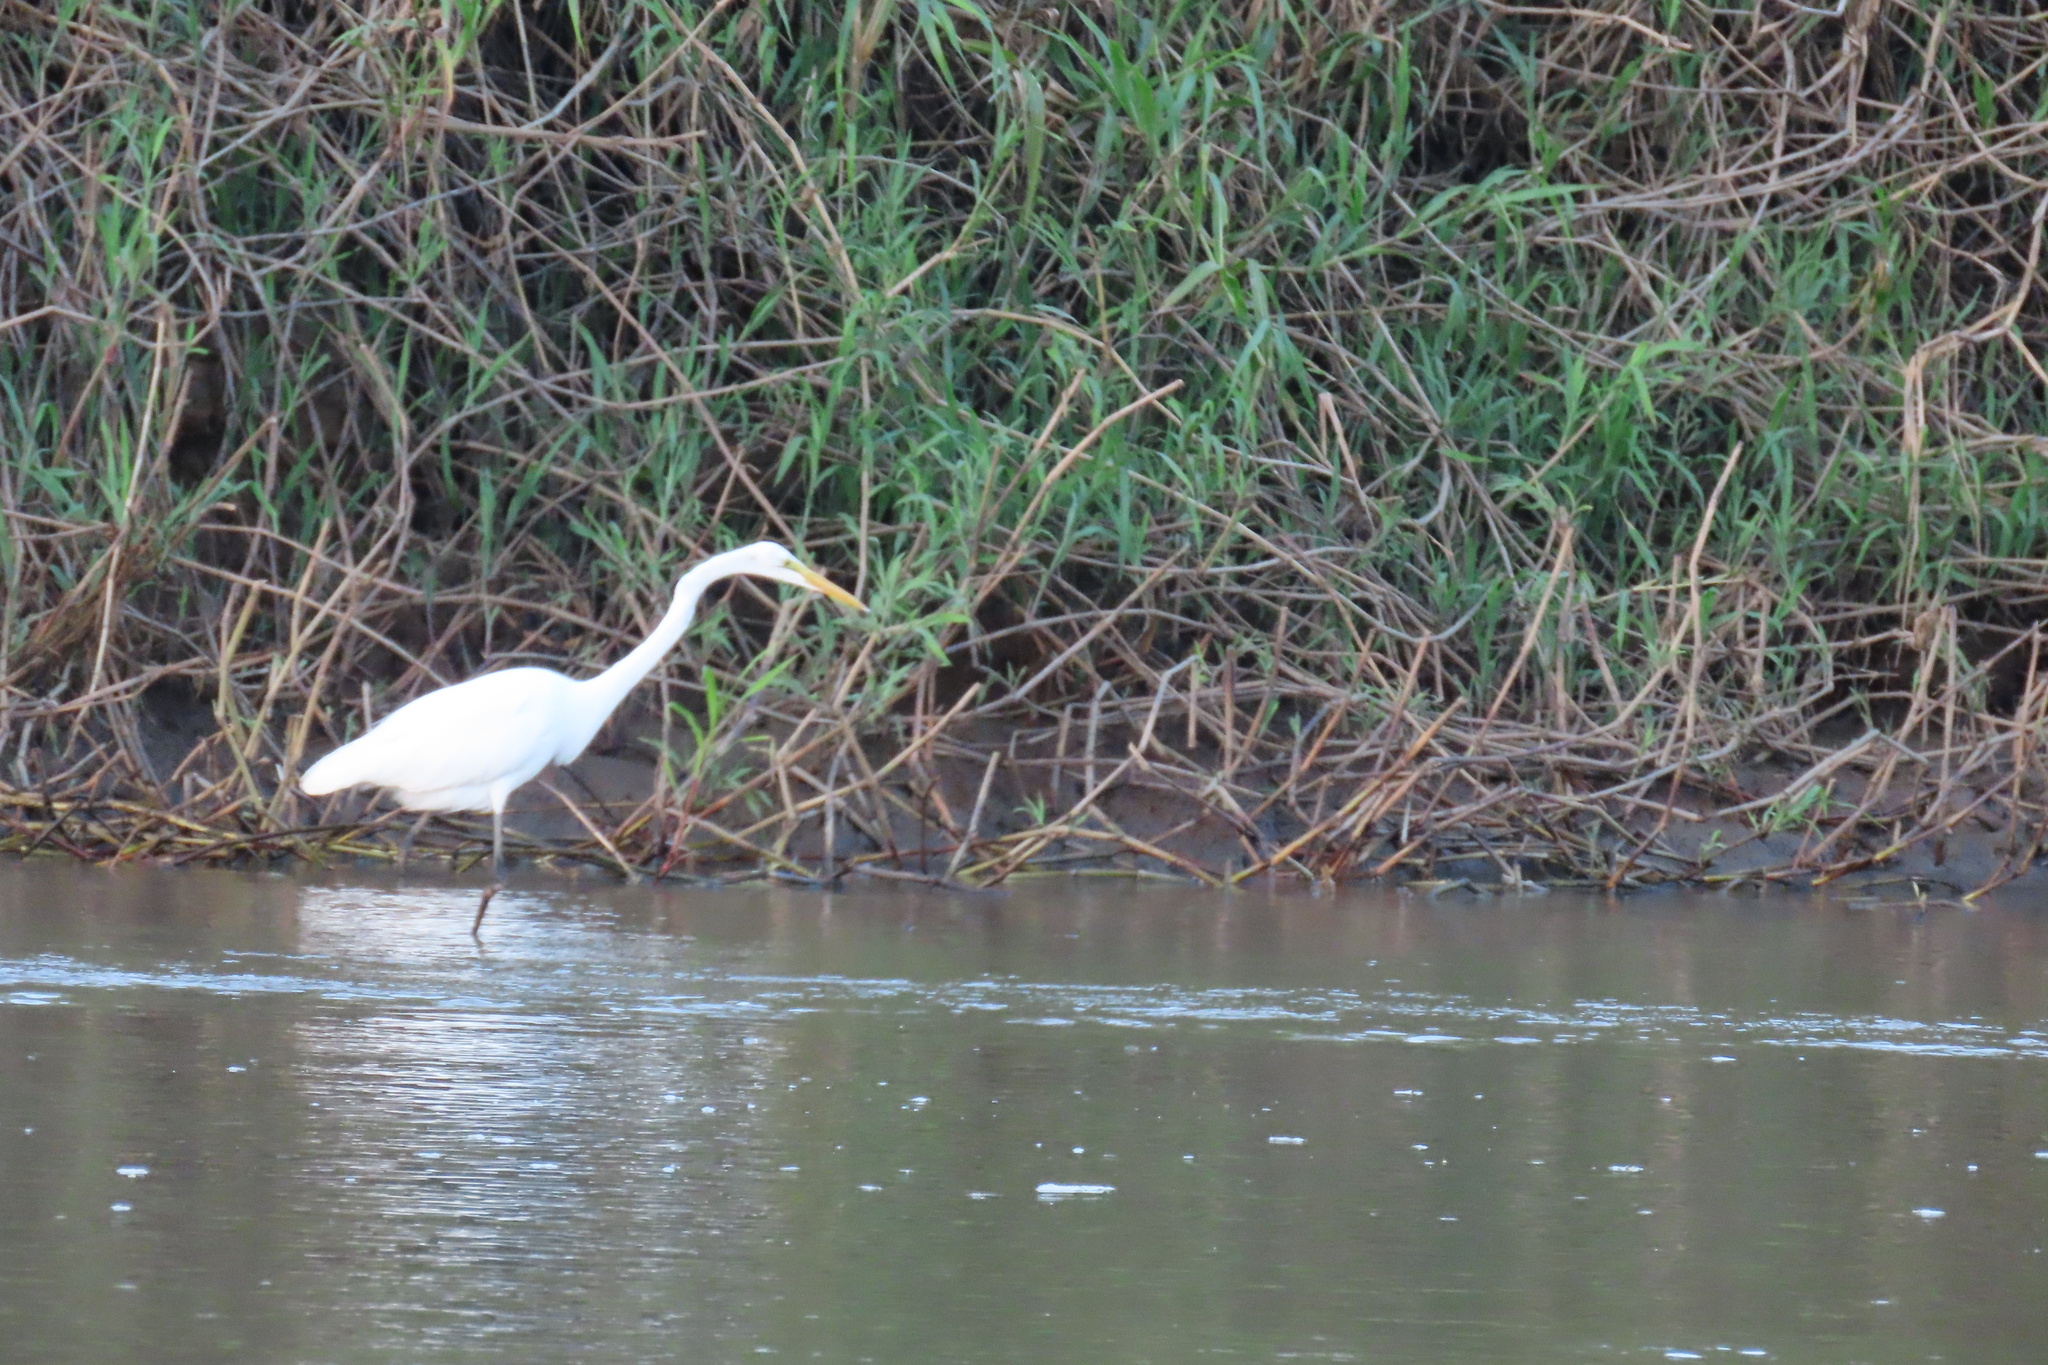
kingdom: Animalia
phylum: Chordata
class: Aves
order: Pelecaniformes
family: Ardeidae
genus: Ardea
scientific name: Ardea alba
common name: Great egret
